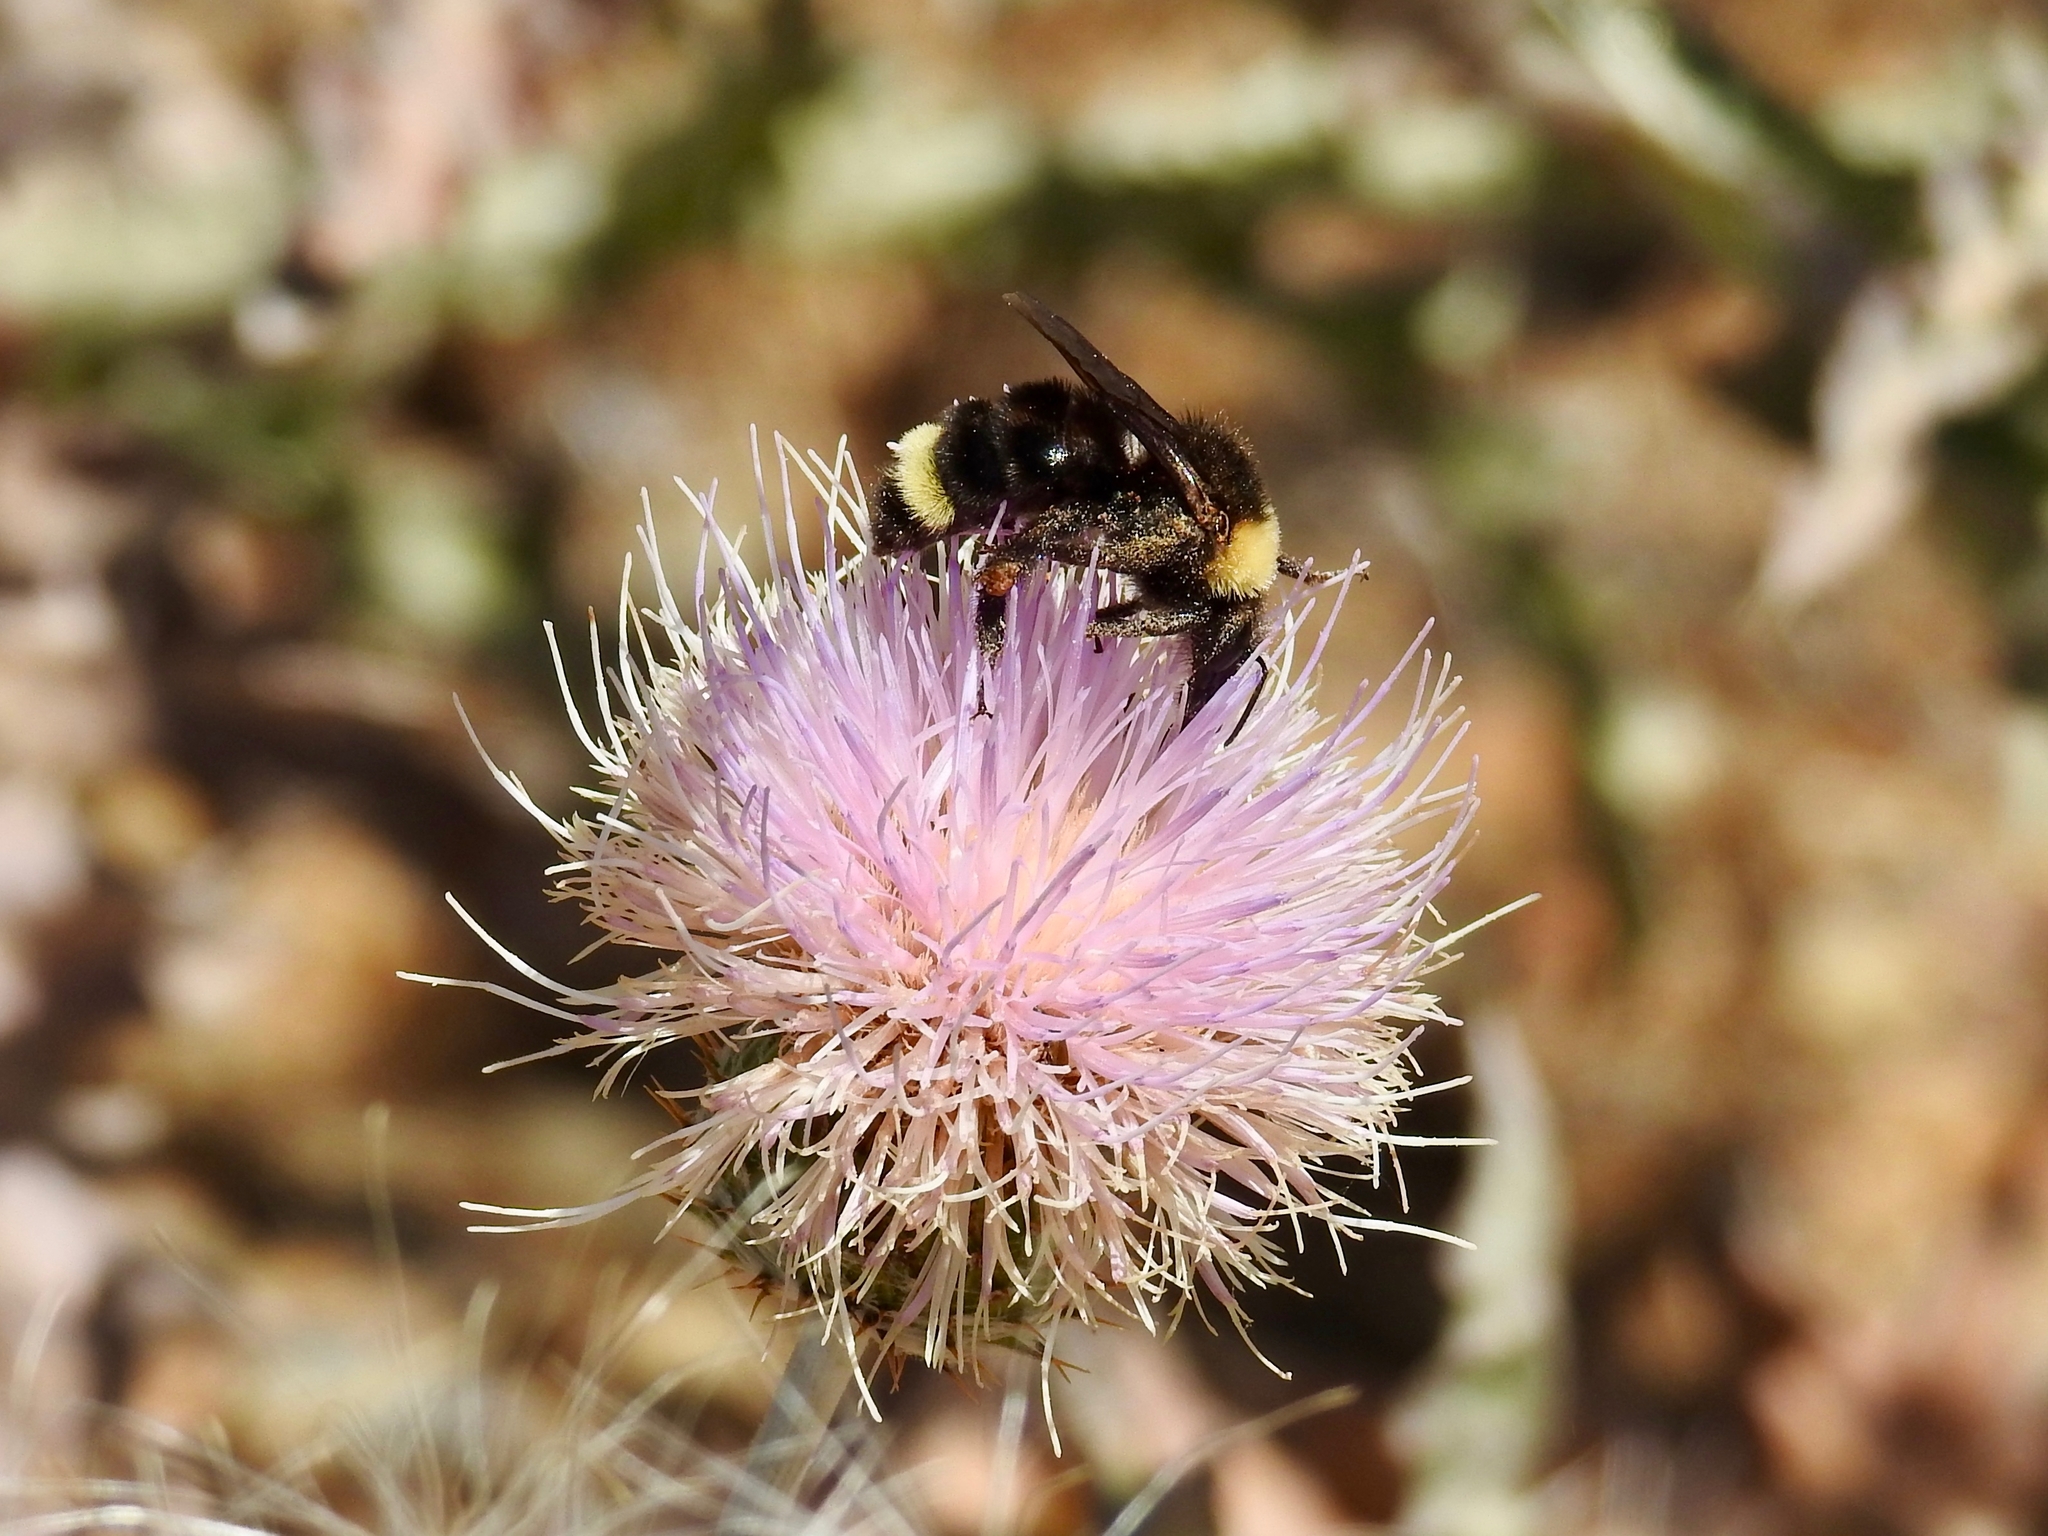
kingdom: Animalia
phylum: Arthropoda
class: Insecta
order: Hymenoptera
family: Apidae
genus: Bombus
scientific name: Bombus californicus
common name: California bumble bee
